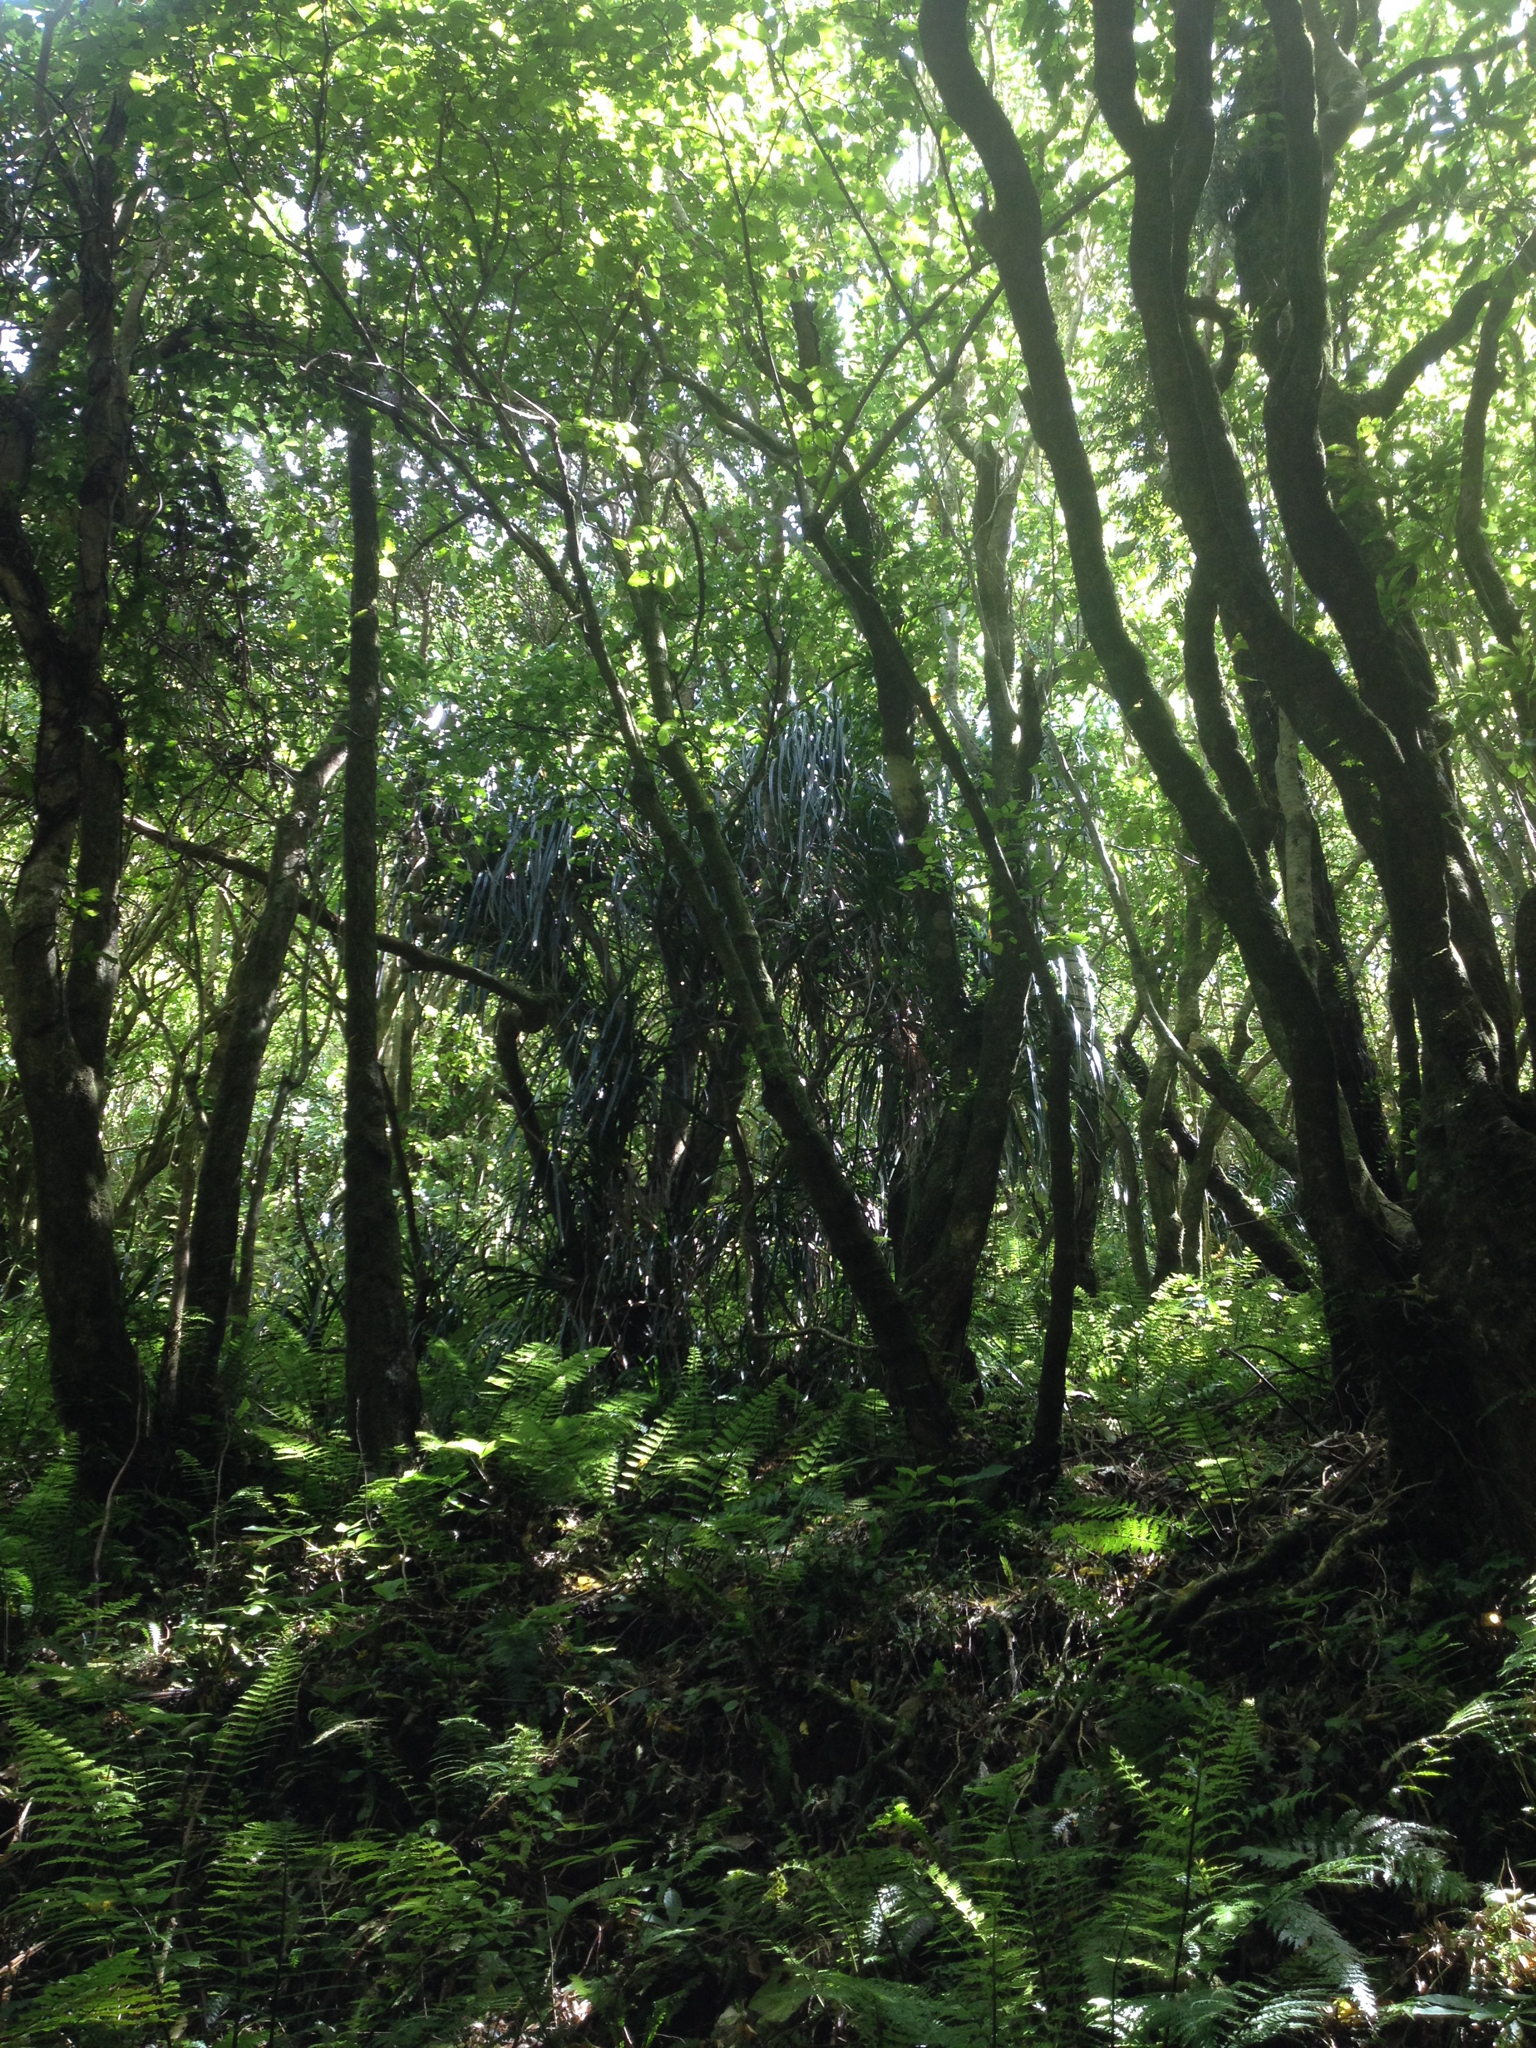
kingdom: Plantae
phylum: Tracheophyta
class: Liliopsida
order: Pandanales
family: Pandanaceae
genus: Freycinetia
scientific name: Freycinetia banksii
